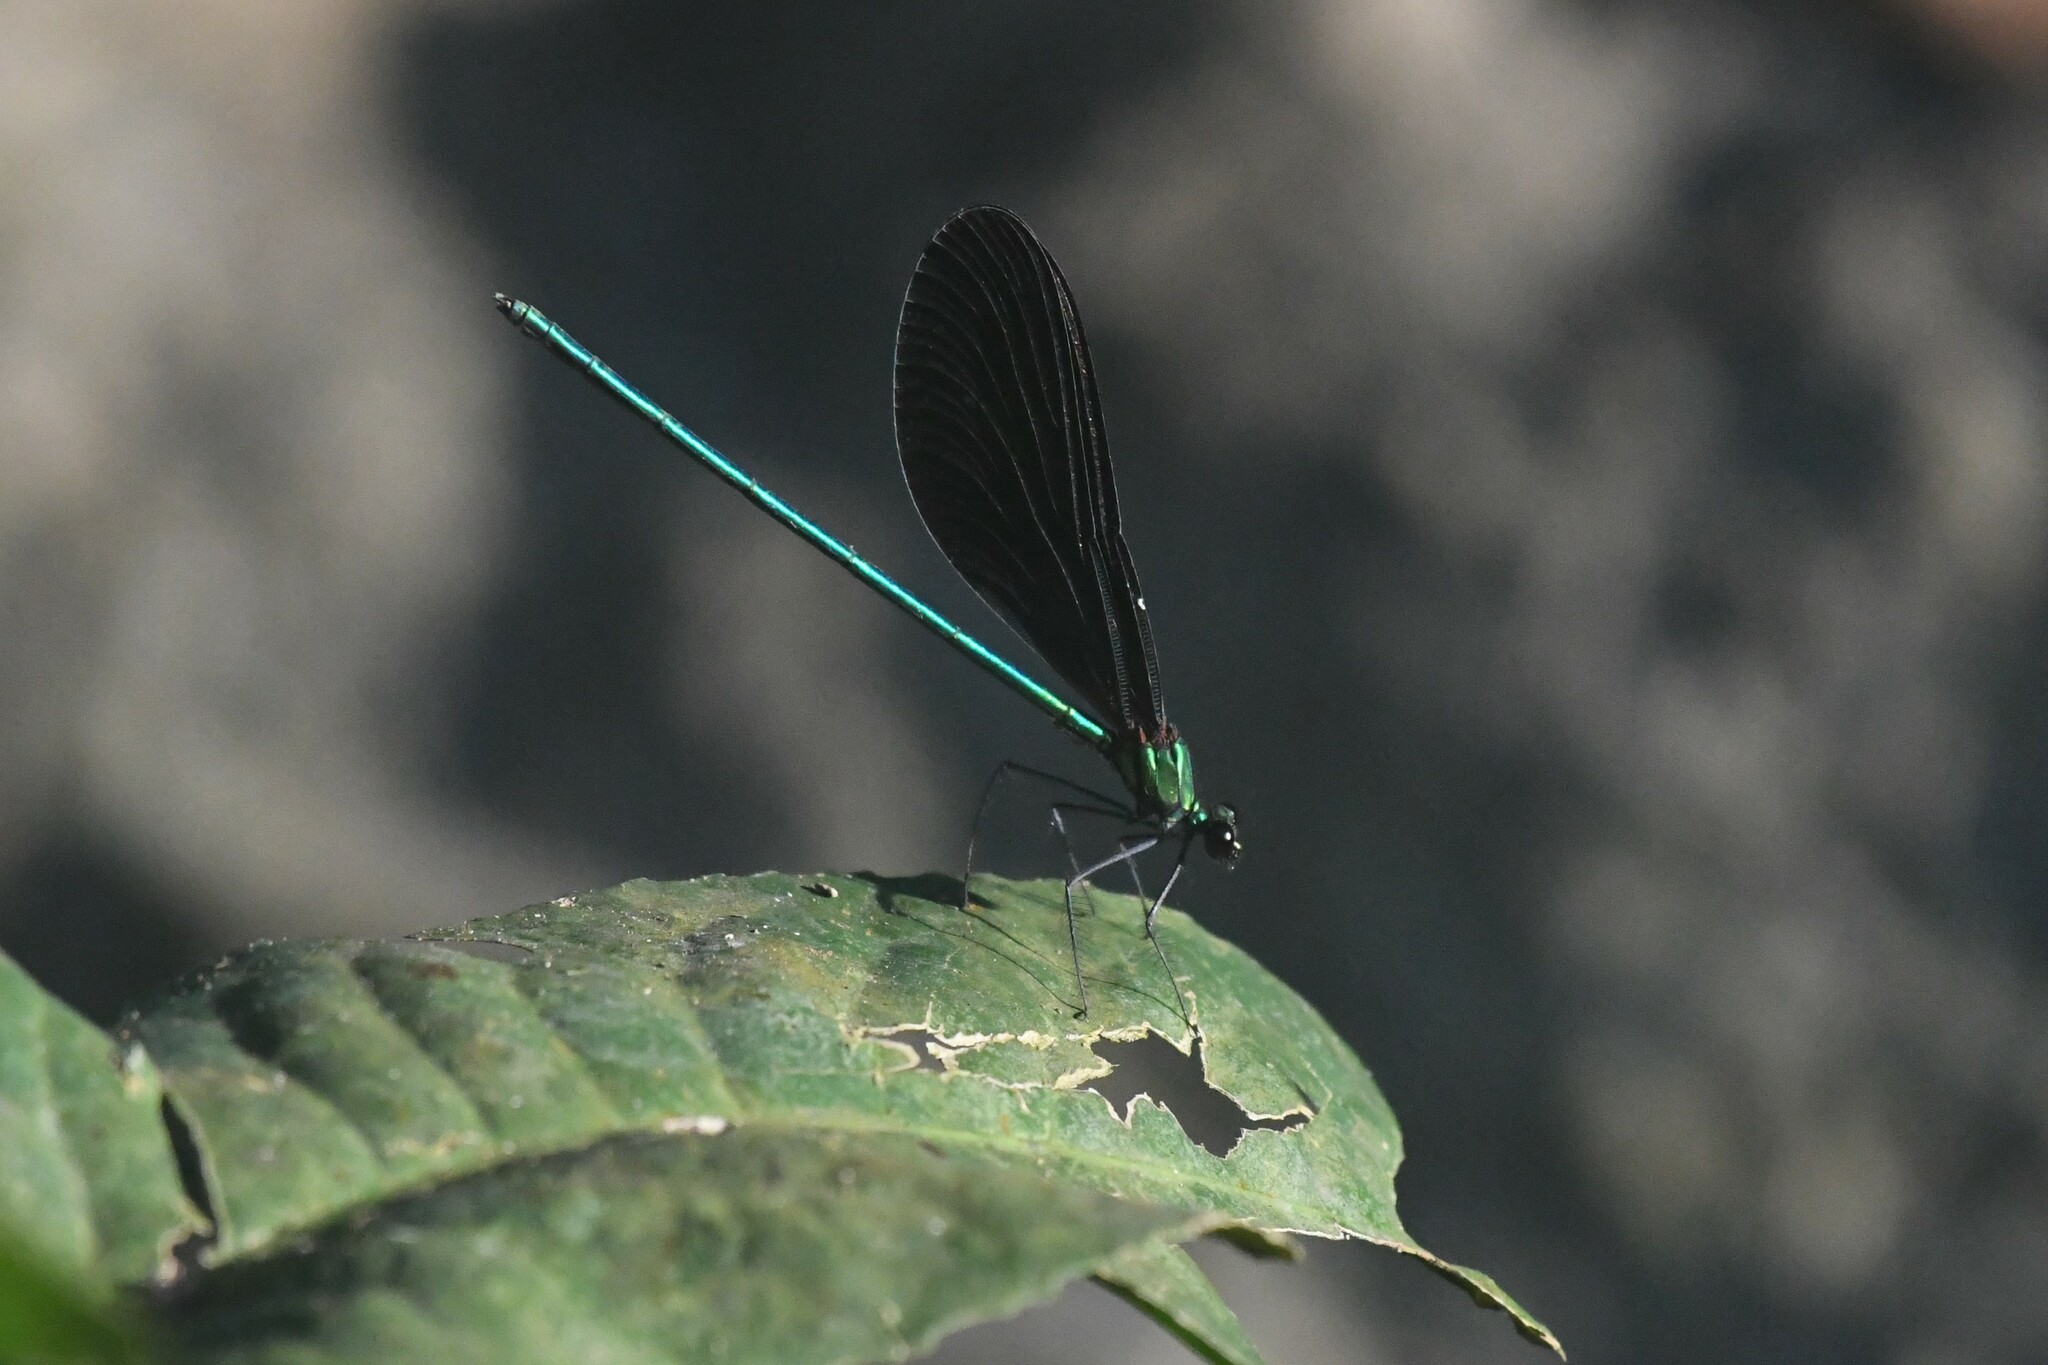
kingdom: Animalia
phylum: Arthropoda
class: Insecta
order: Odonata
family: Calopterygidae
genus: Matrona
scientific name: Matrona nigripectus
